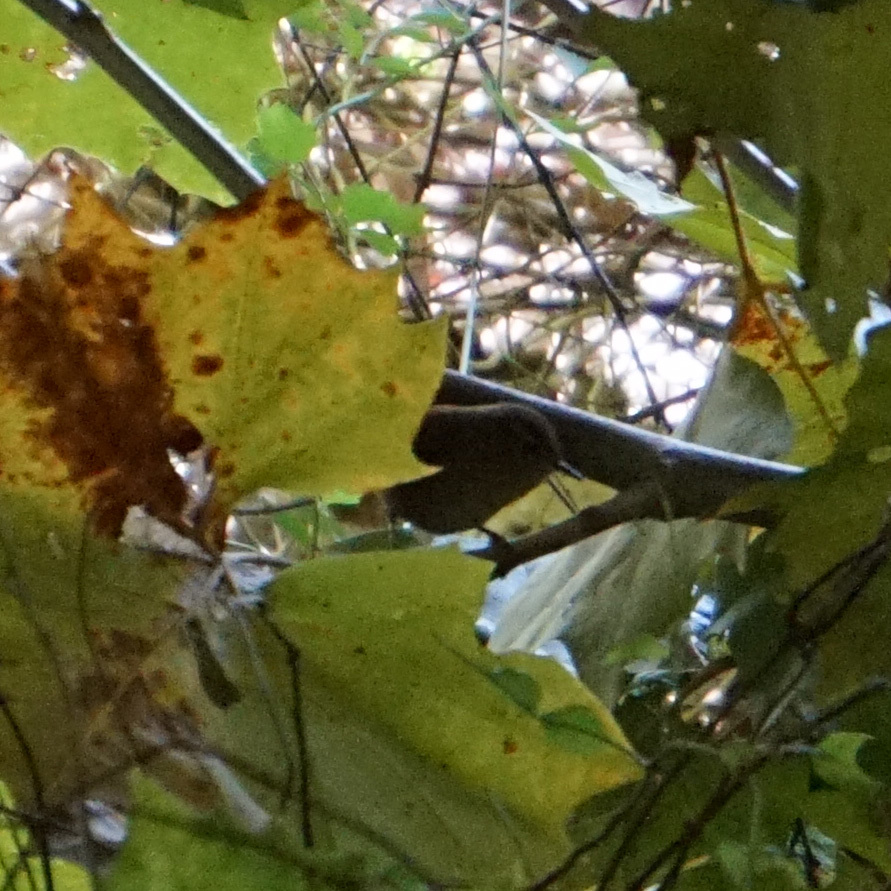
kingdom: Animalia
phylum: Chordata
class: Aves
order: Passeriformes
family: Troglodytidae
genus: Troglodytes
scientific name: Troglodytes hiemalis
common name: Winter wren
